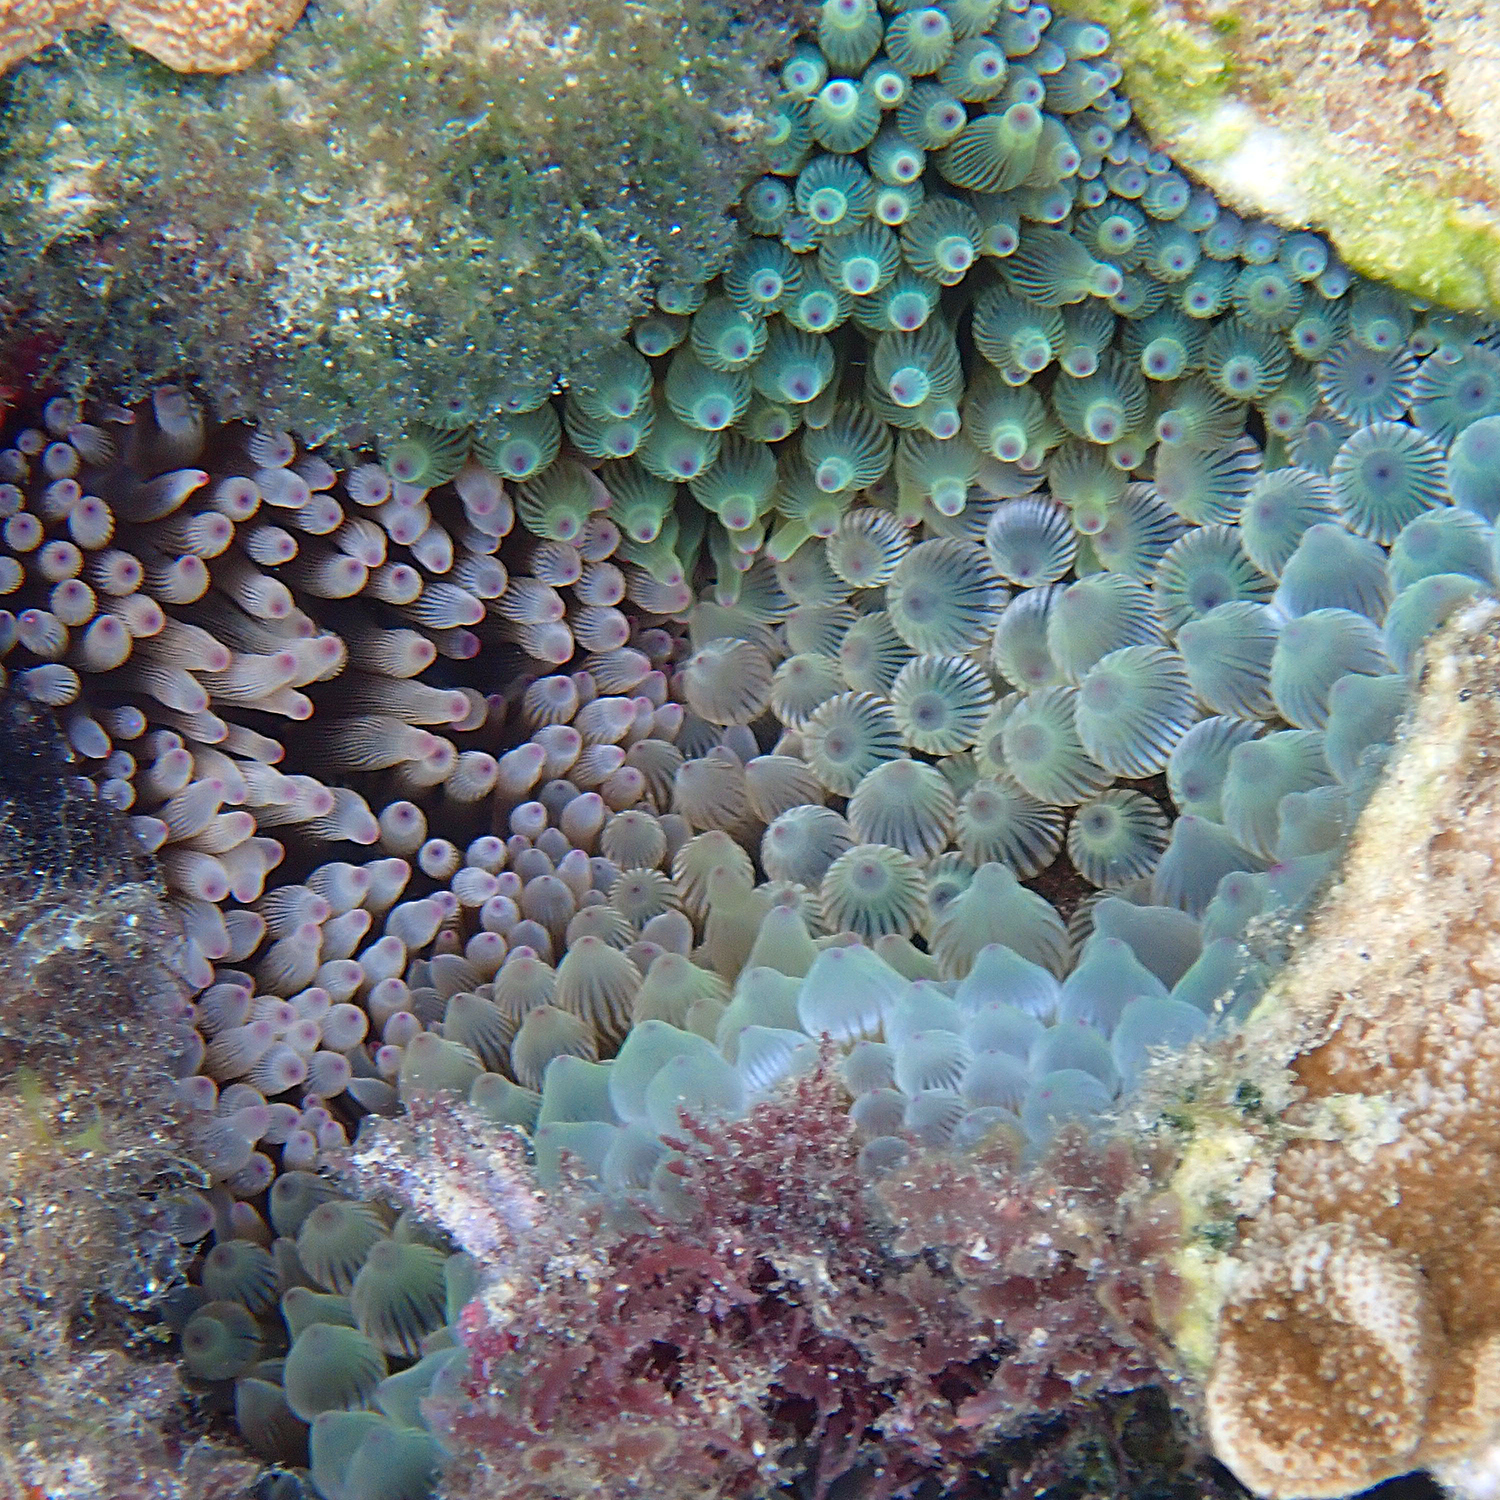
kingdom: Animalia
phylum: Cnidaria
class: Anthozoa
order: Actiniaria
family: Actiniidae
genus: Entacmaea
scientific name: Entacmaea quadricolor
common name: Bulb tentacle sea anemone
